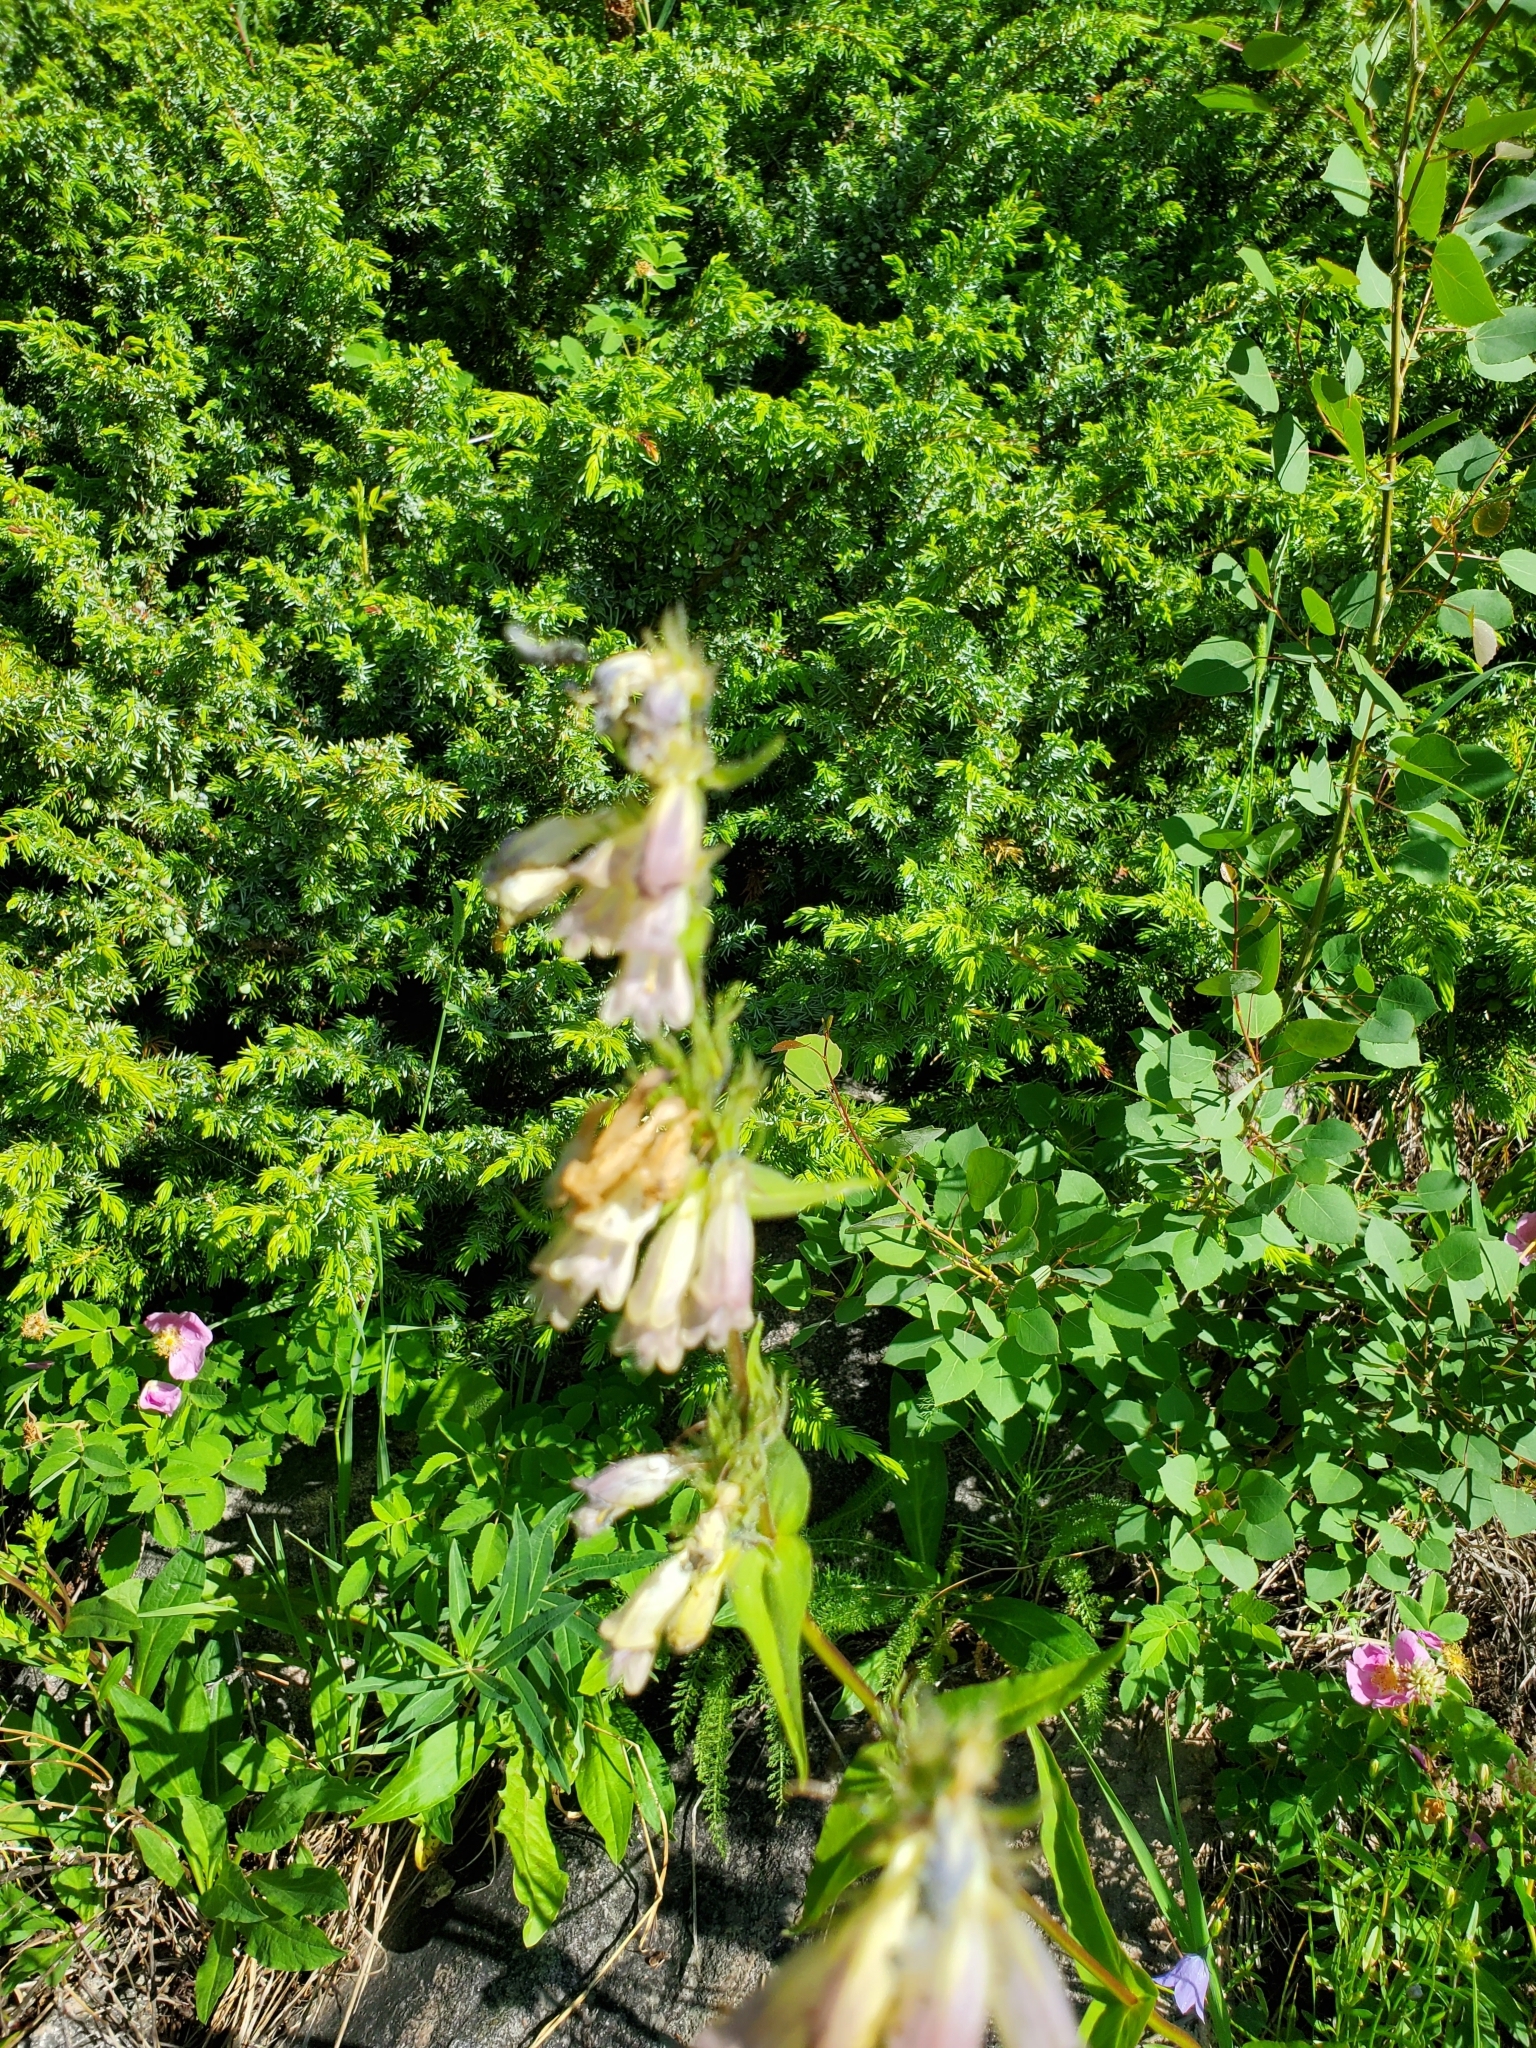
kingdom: Plantae
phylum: Tracheophyta
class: Magnoliopsida
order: Lamiales
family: Plantaginaceae
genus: Penstemon
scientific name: Penstemon whippleanus
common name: Whipple's penstemon
